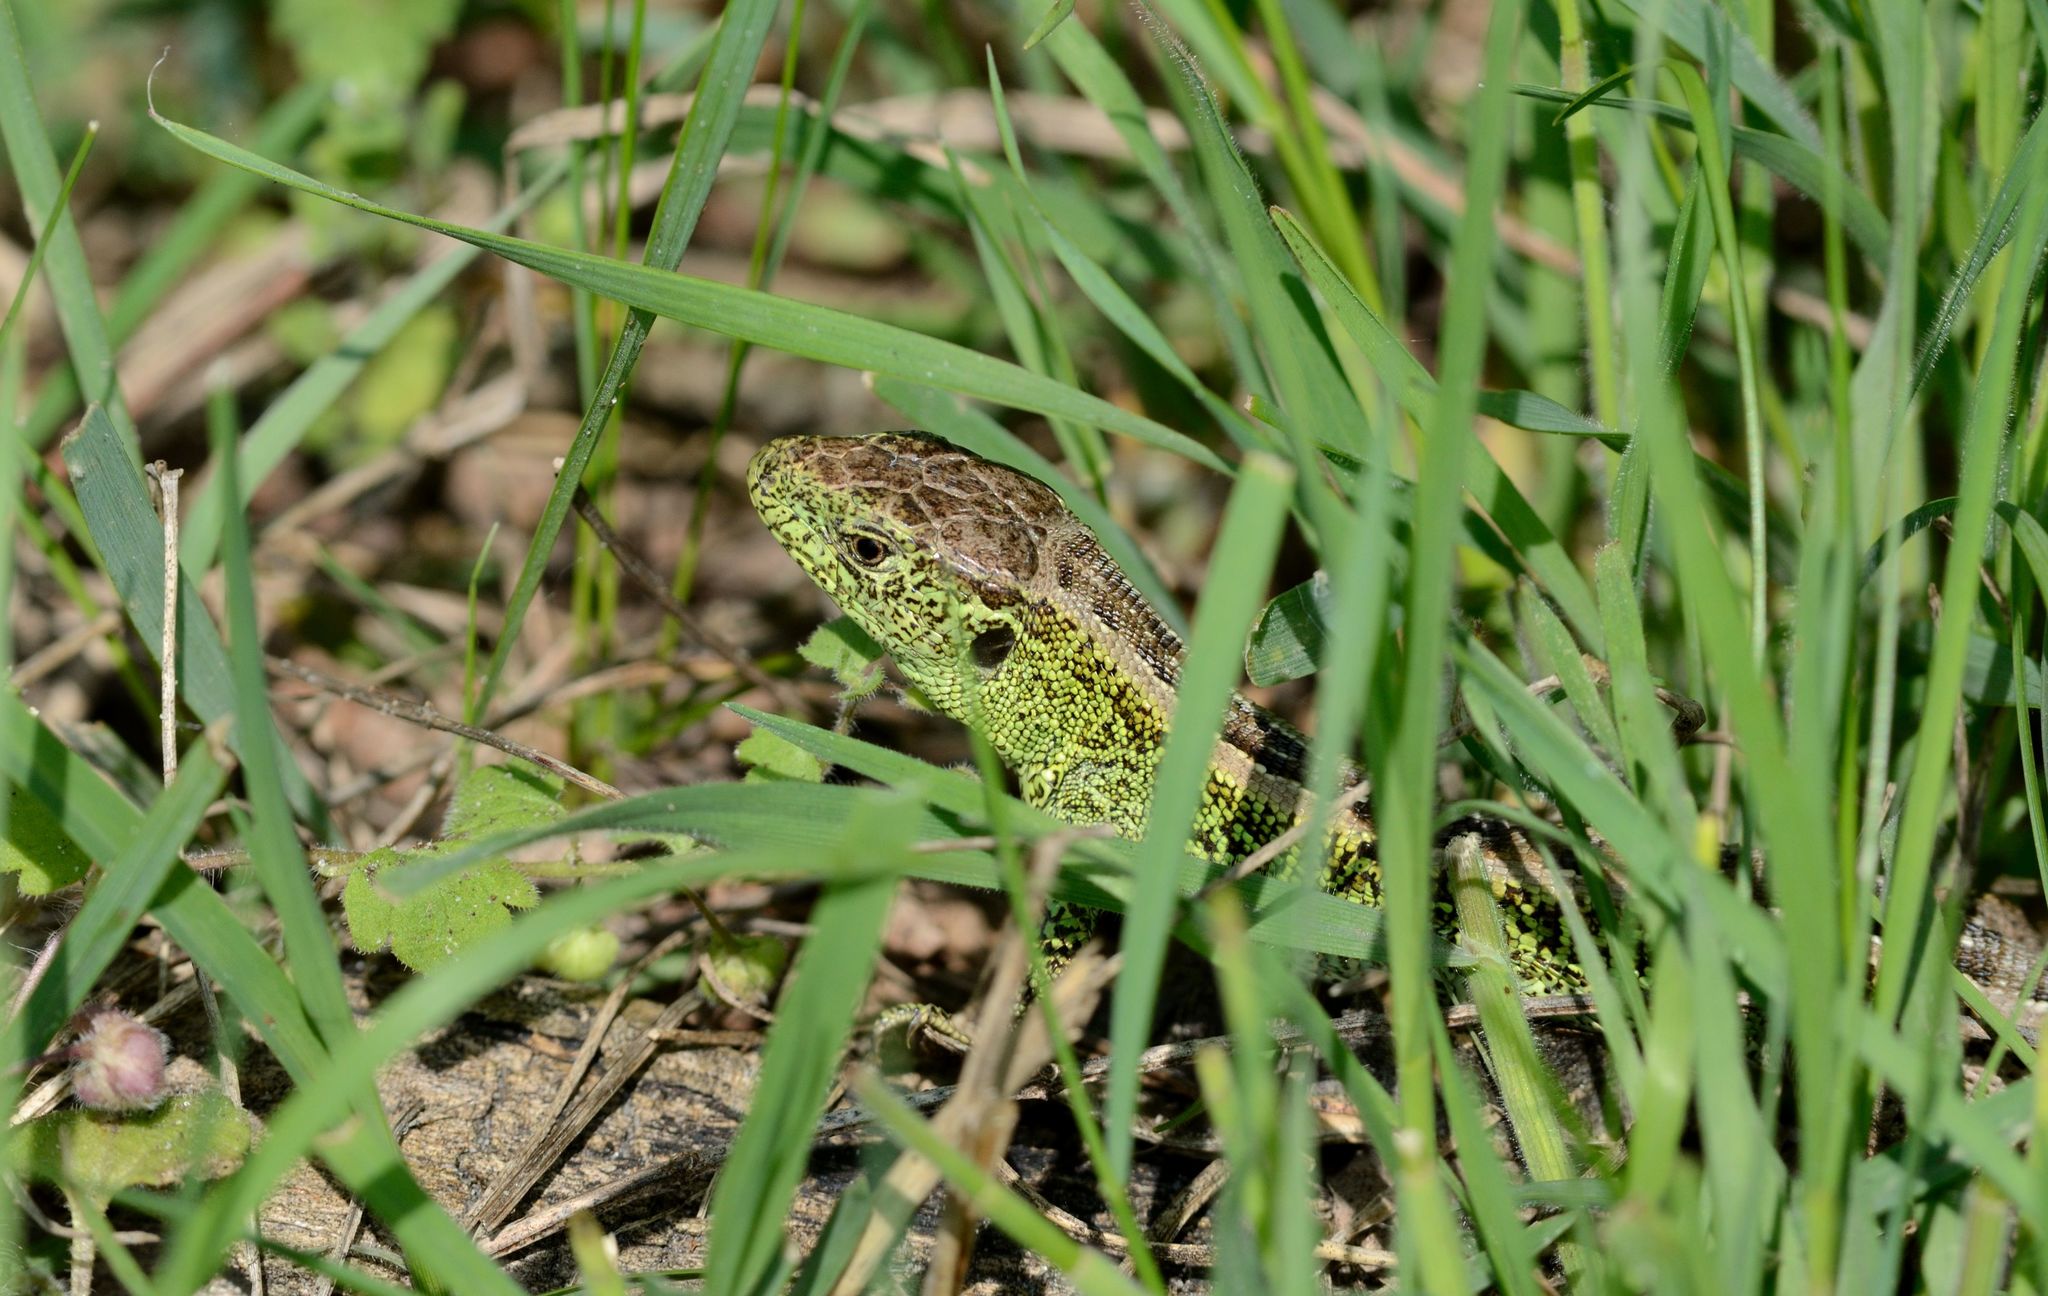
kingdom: Animalia
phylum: Chordata
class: Squamata
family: Lacertidae
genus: Lacerta
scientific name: Lacerta agilis
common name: Sand lizard
